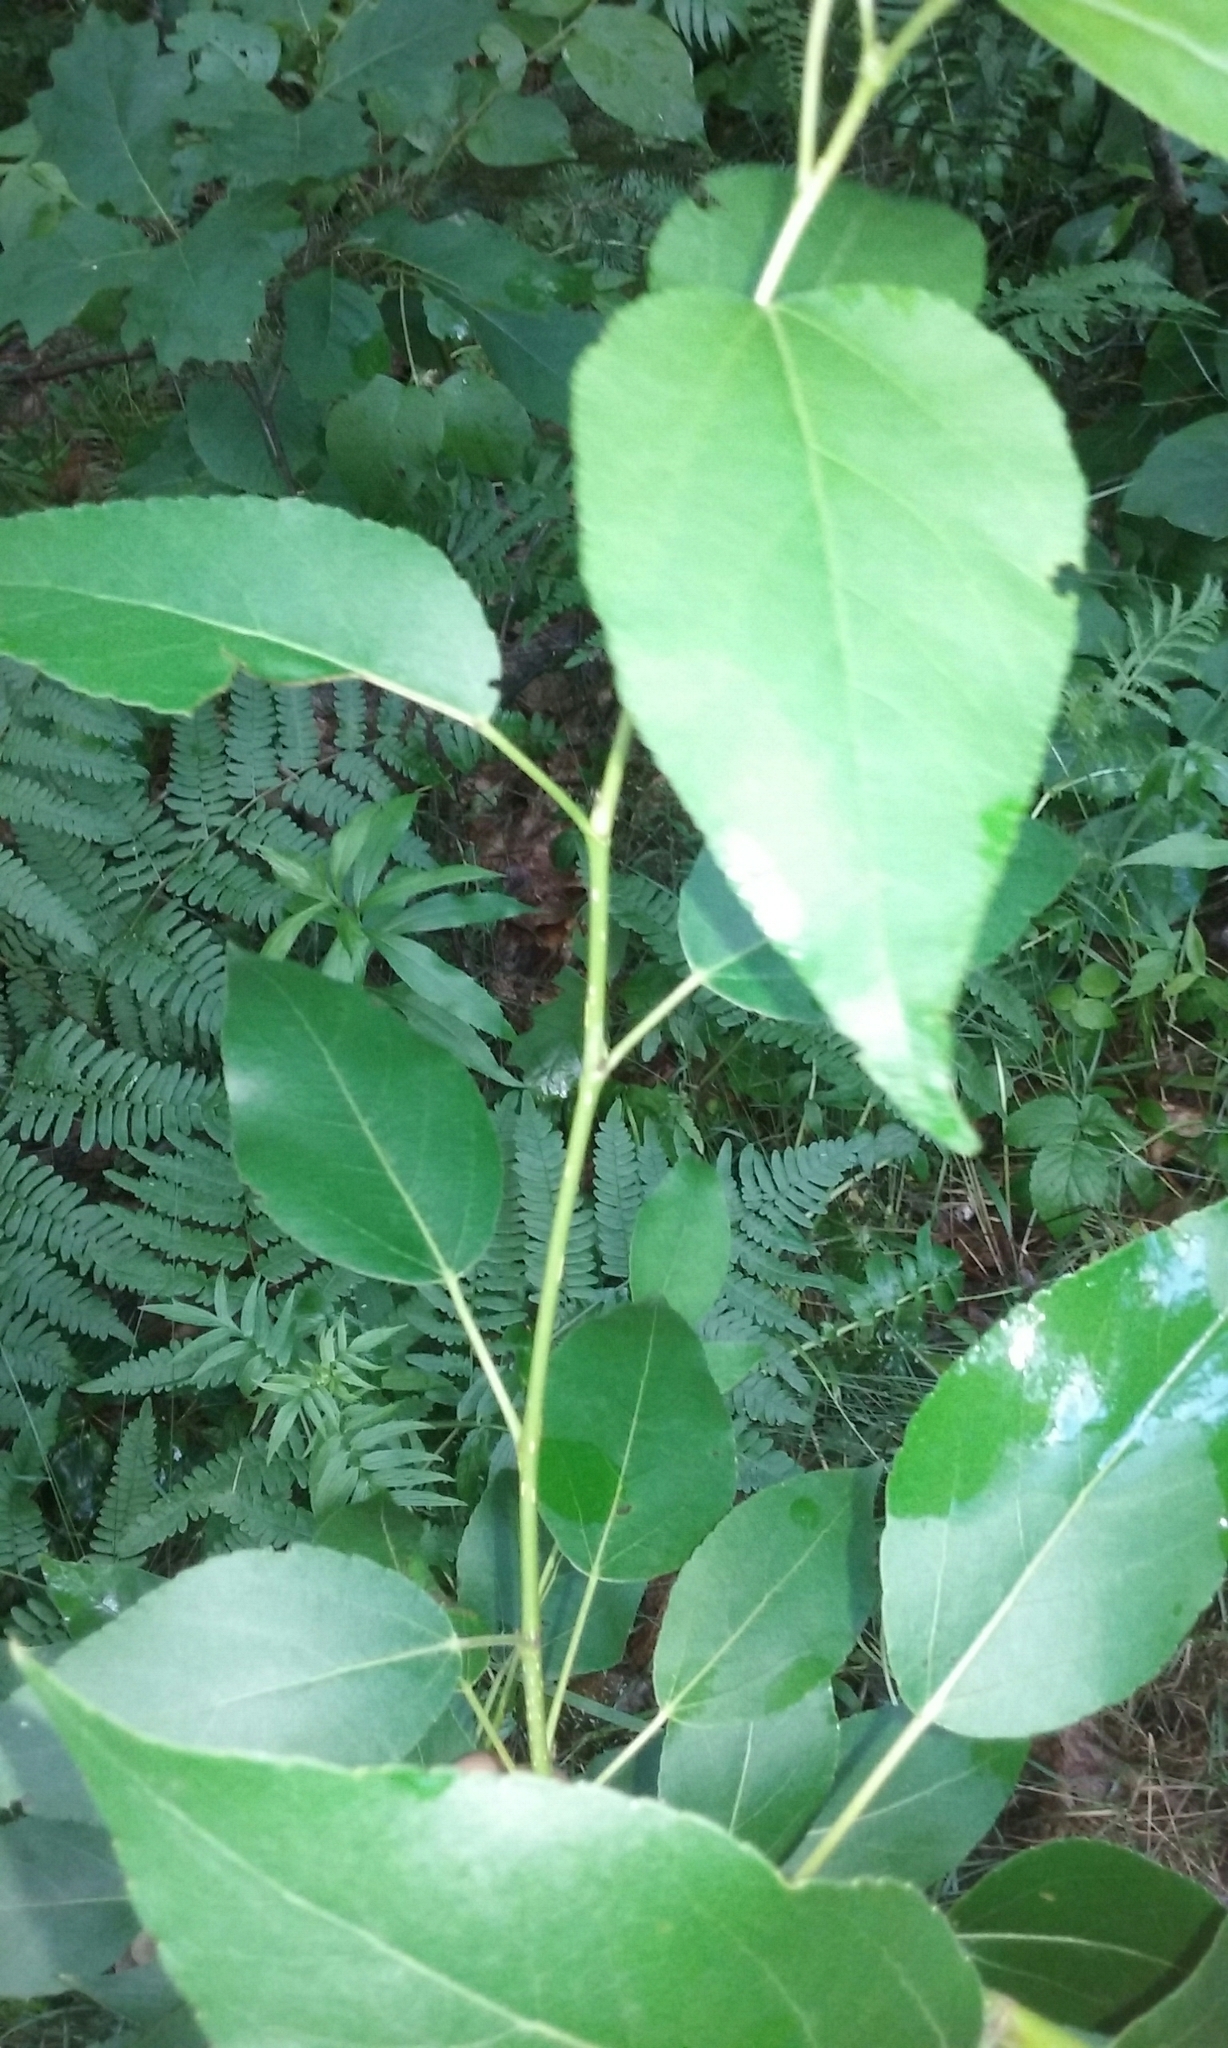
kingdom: Plantae
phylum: Tracheophyta
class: Magnoliopsida
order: Malpighiales
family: Salicaceae
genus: Populus
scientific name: Populus balsamifera
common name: Balsam poplar
